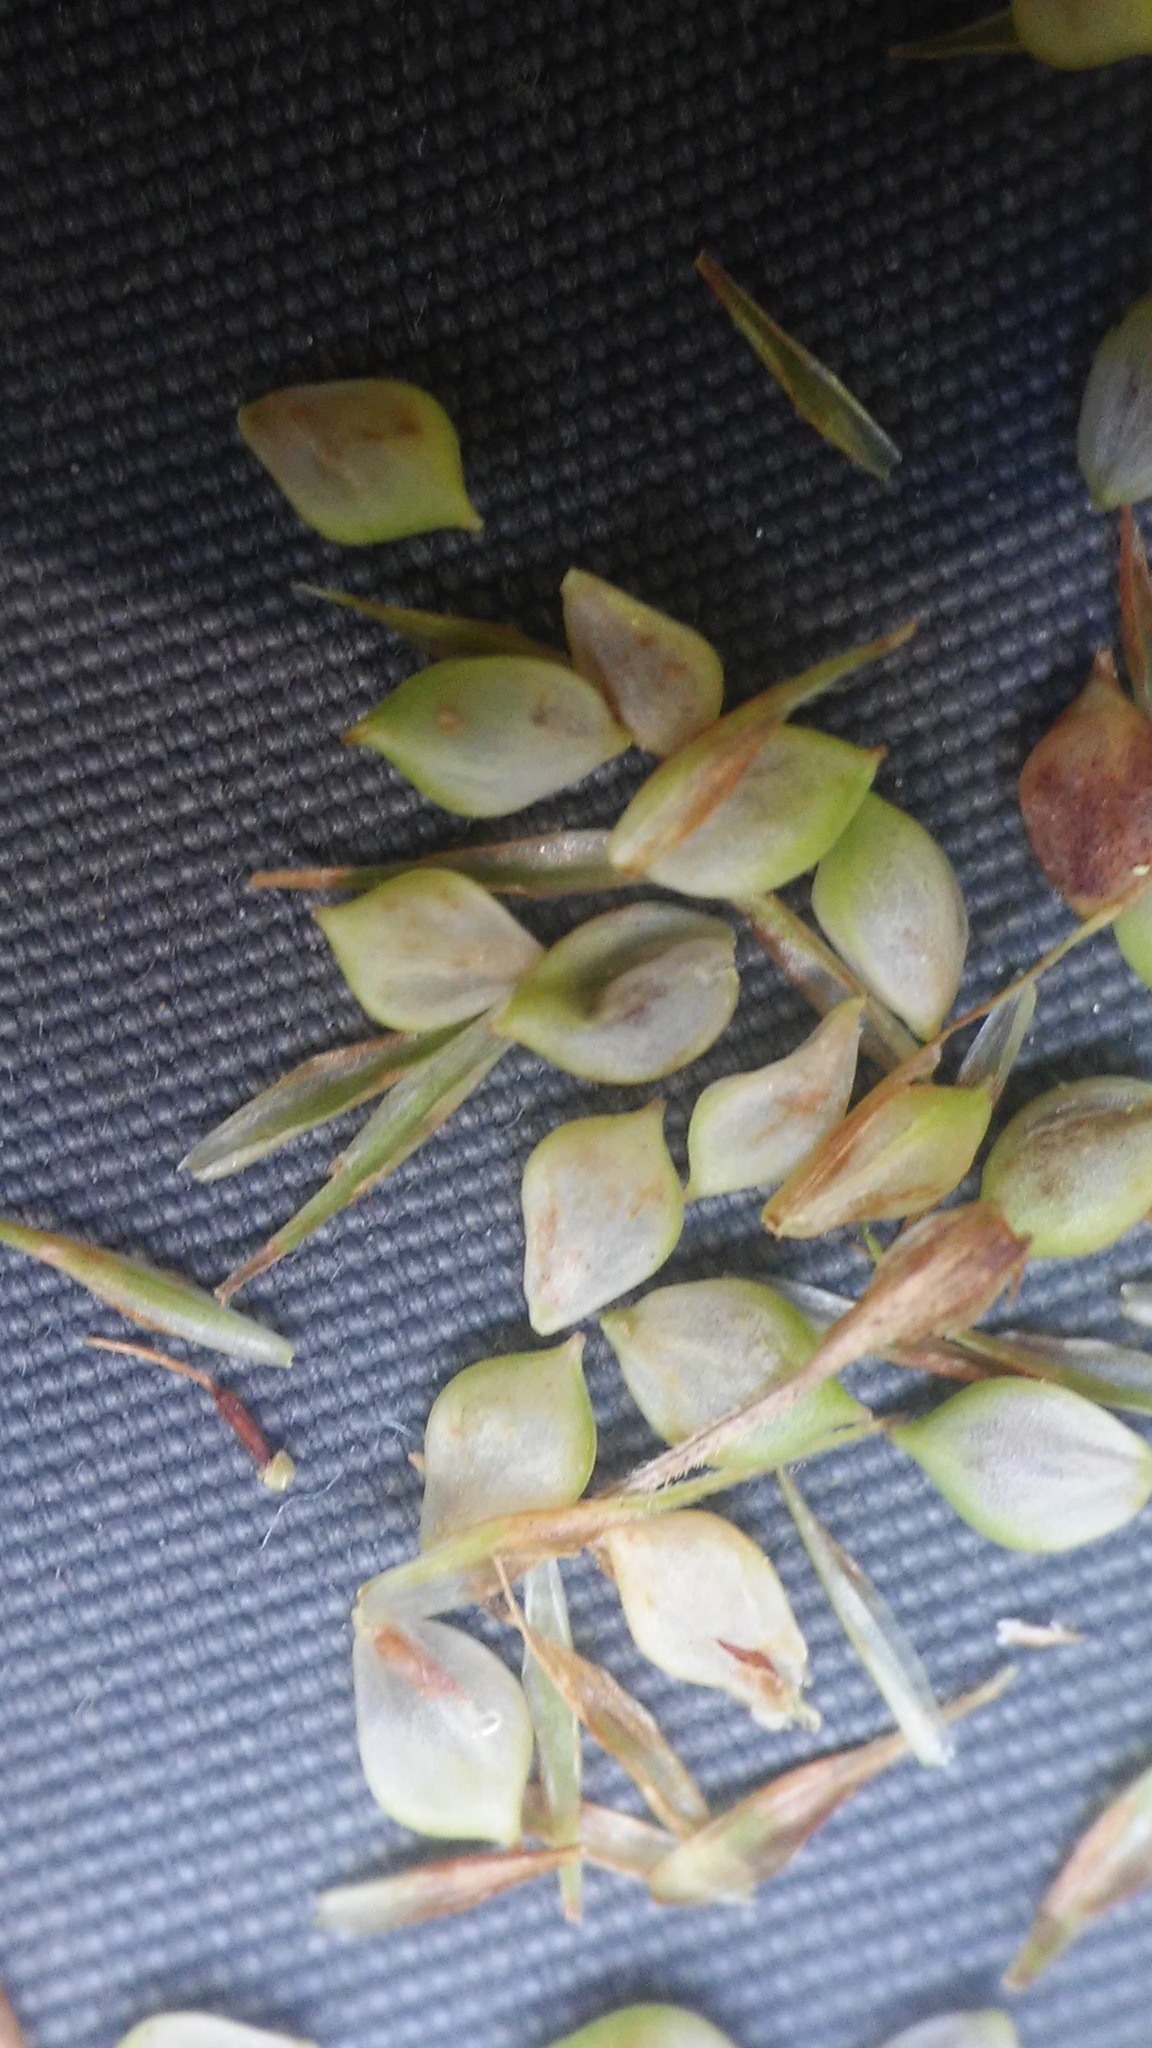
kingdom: Plantae
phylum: Tracheophyta
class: Liliopsida
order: Poales
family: Cyperaceae
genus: Carex
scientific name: Carex crinita
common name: Fringed sedge
